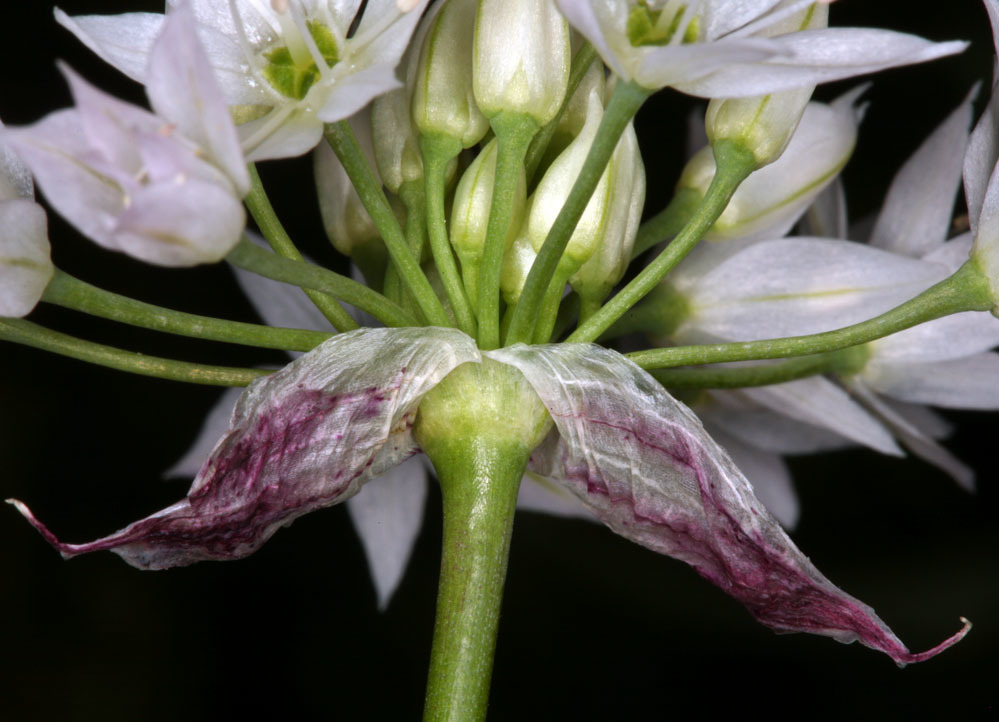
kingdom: Plantae
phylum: Tracheophyta
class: Liliopsida
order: Asparagales
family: Amaryllidaceae
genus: Allium
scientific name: Allium bisceptrum
